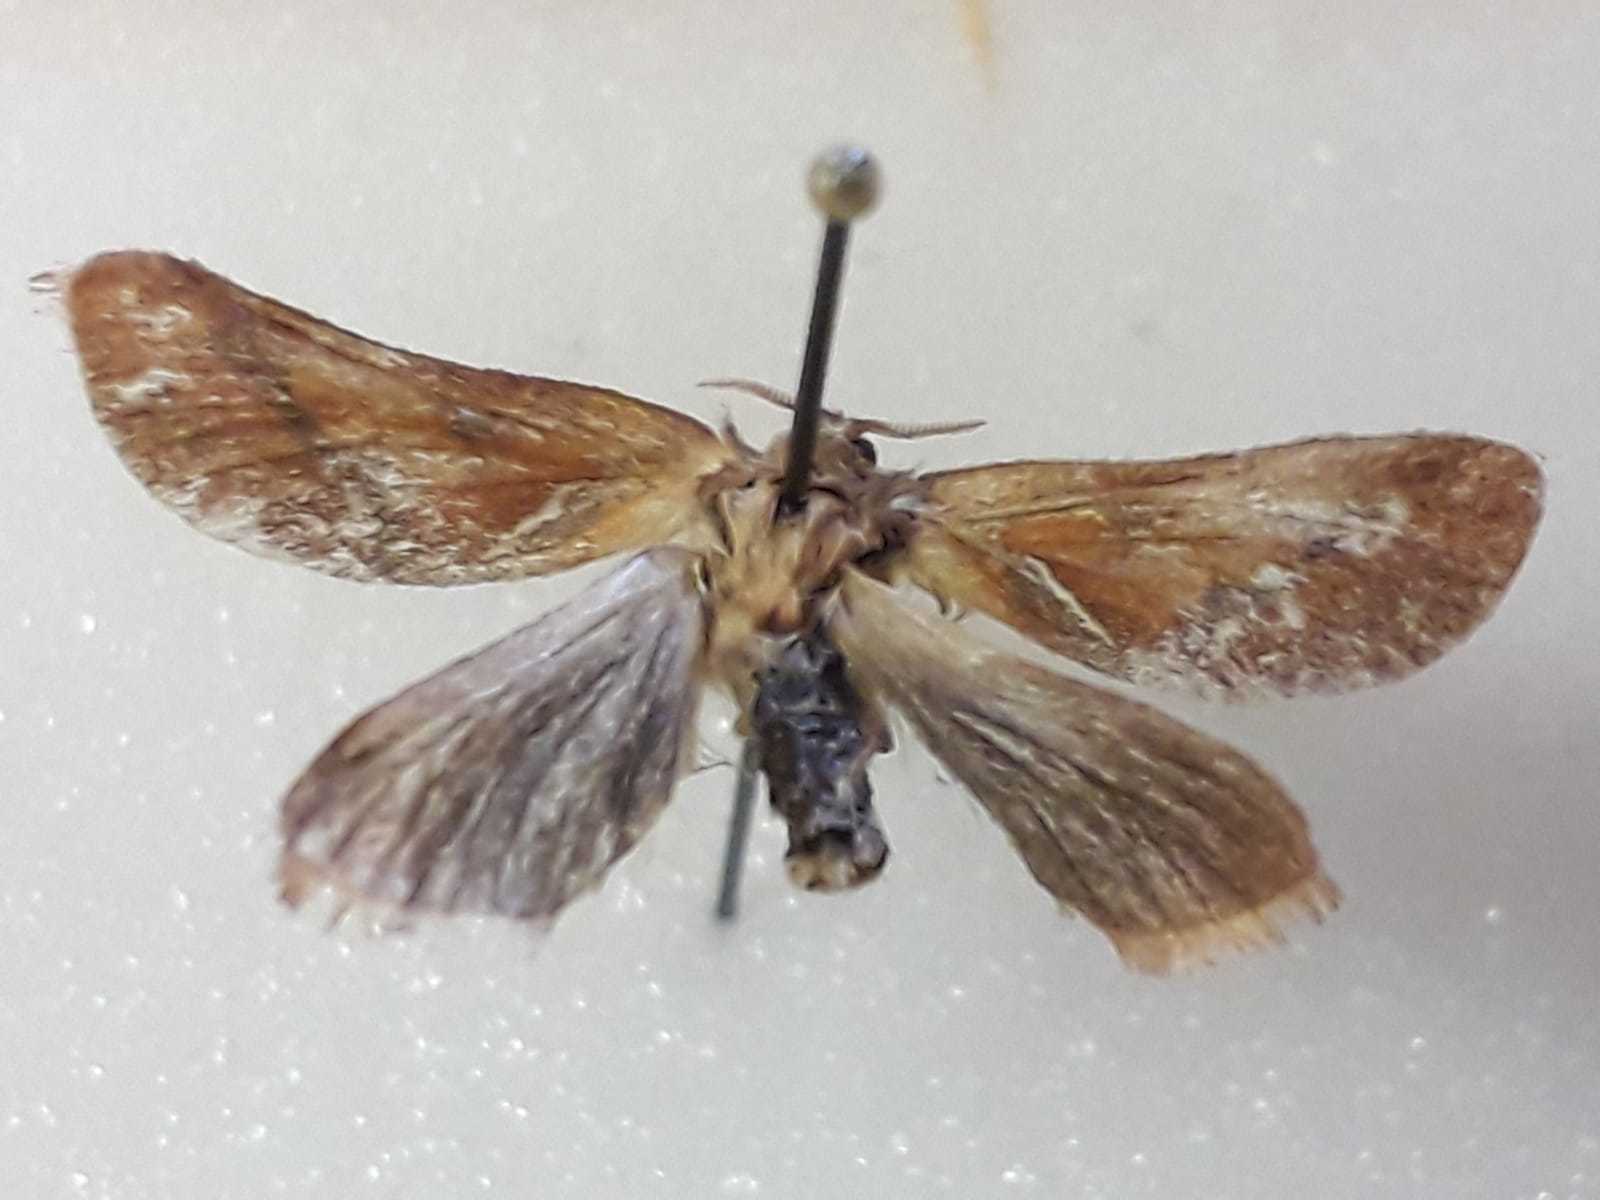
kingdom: Animalia
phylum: Arthropoda
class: Insecta
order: Lepidoptera
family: Hepialidae
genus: Triodia
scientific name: Triodia sylvina
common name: Orange swift
